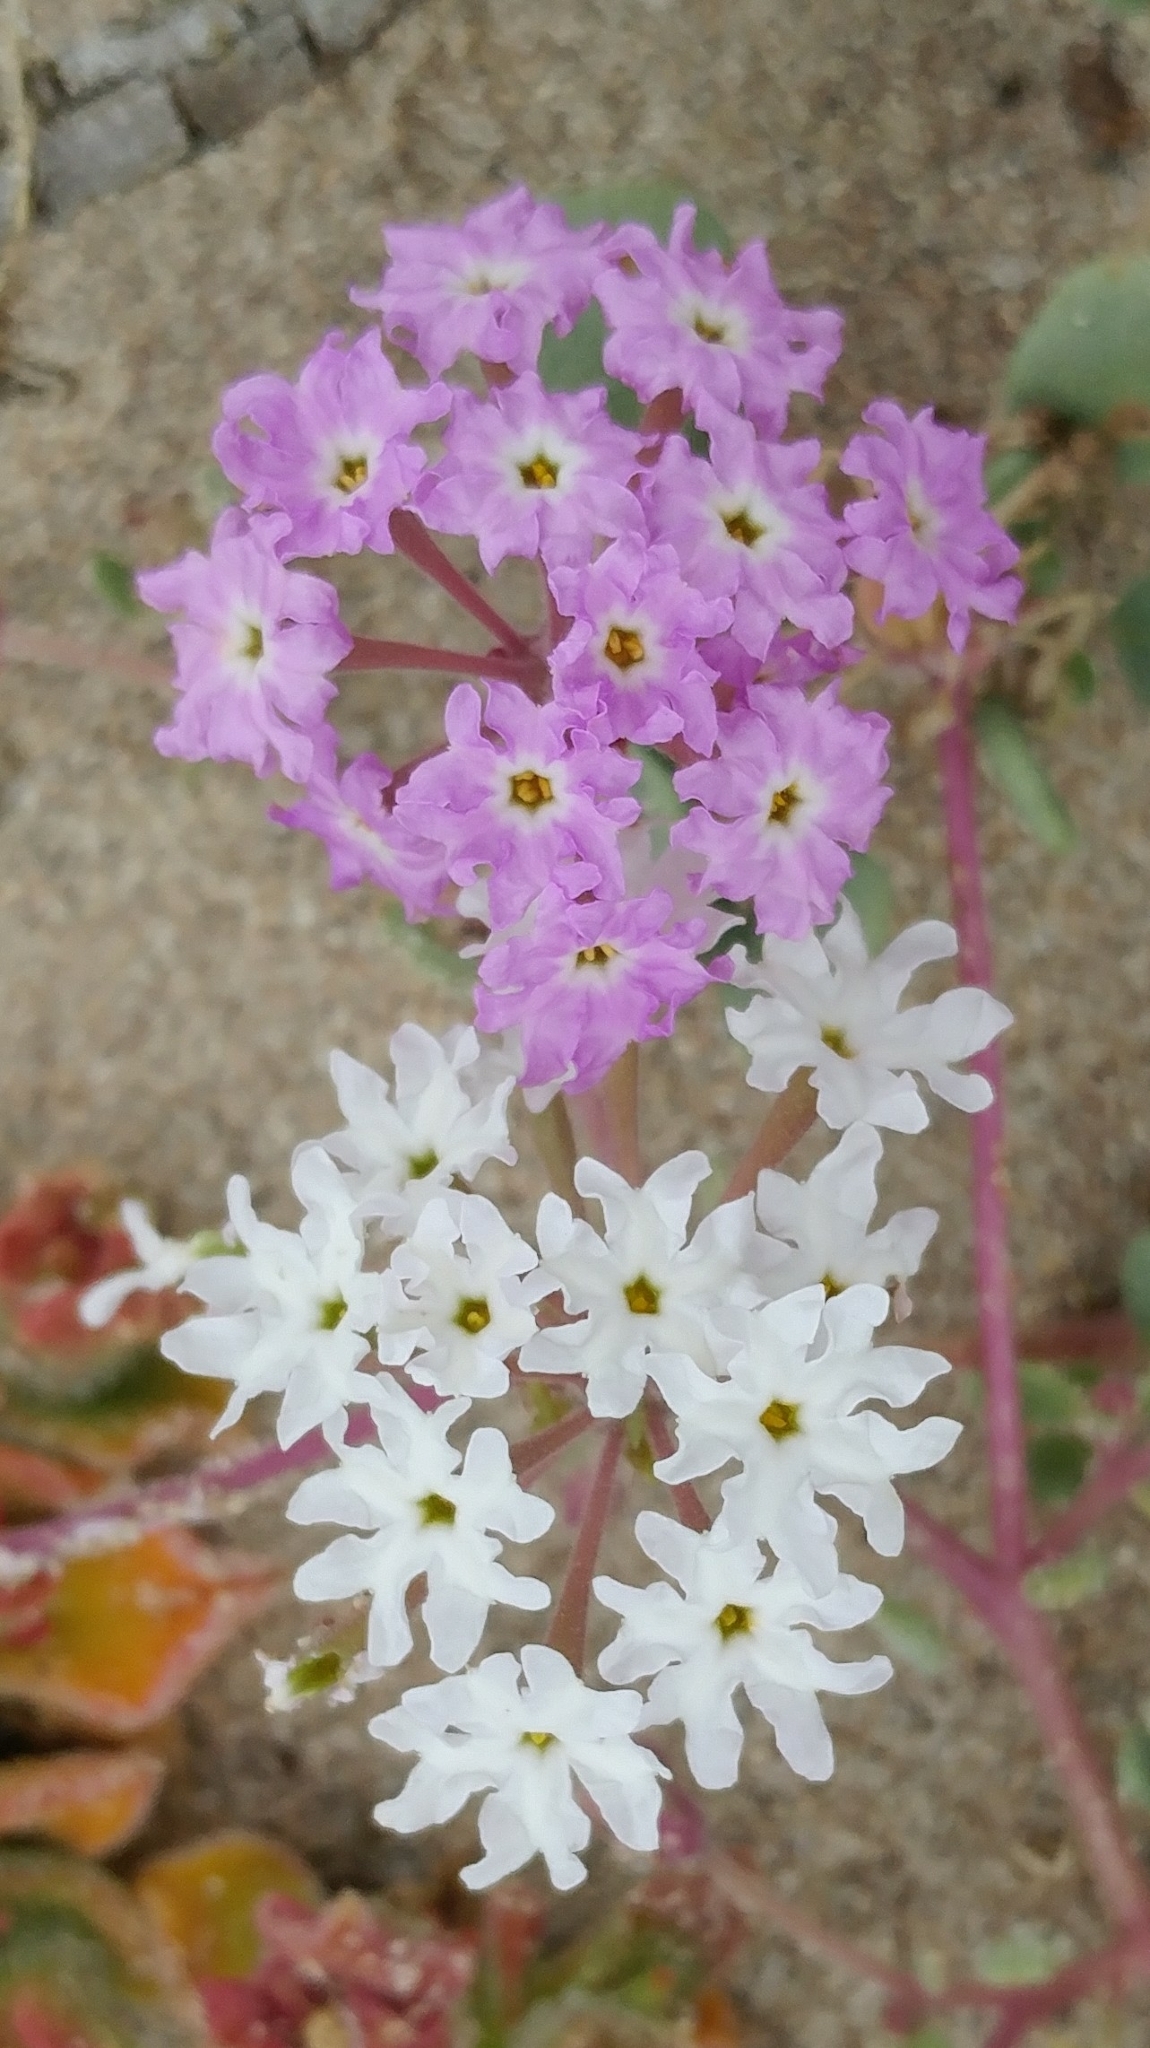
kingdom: Plantae
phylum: Tracheophyta
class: Magnoliopsida
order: Caryophyllales
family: Nyctaginaceae
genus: Abronia
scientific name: Abronia umbellata
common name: Sand-verbena
